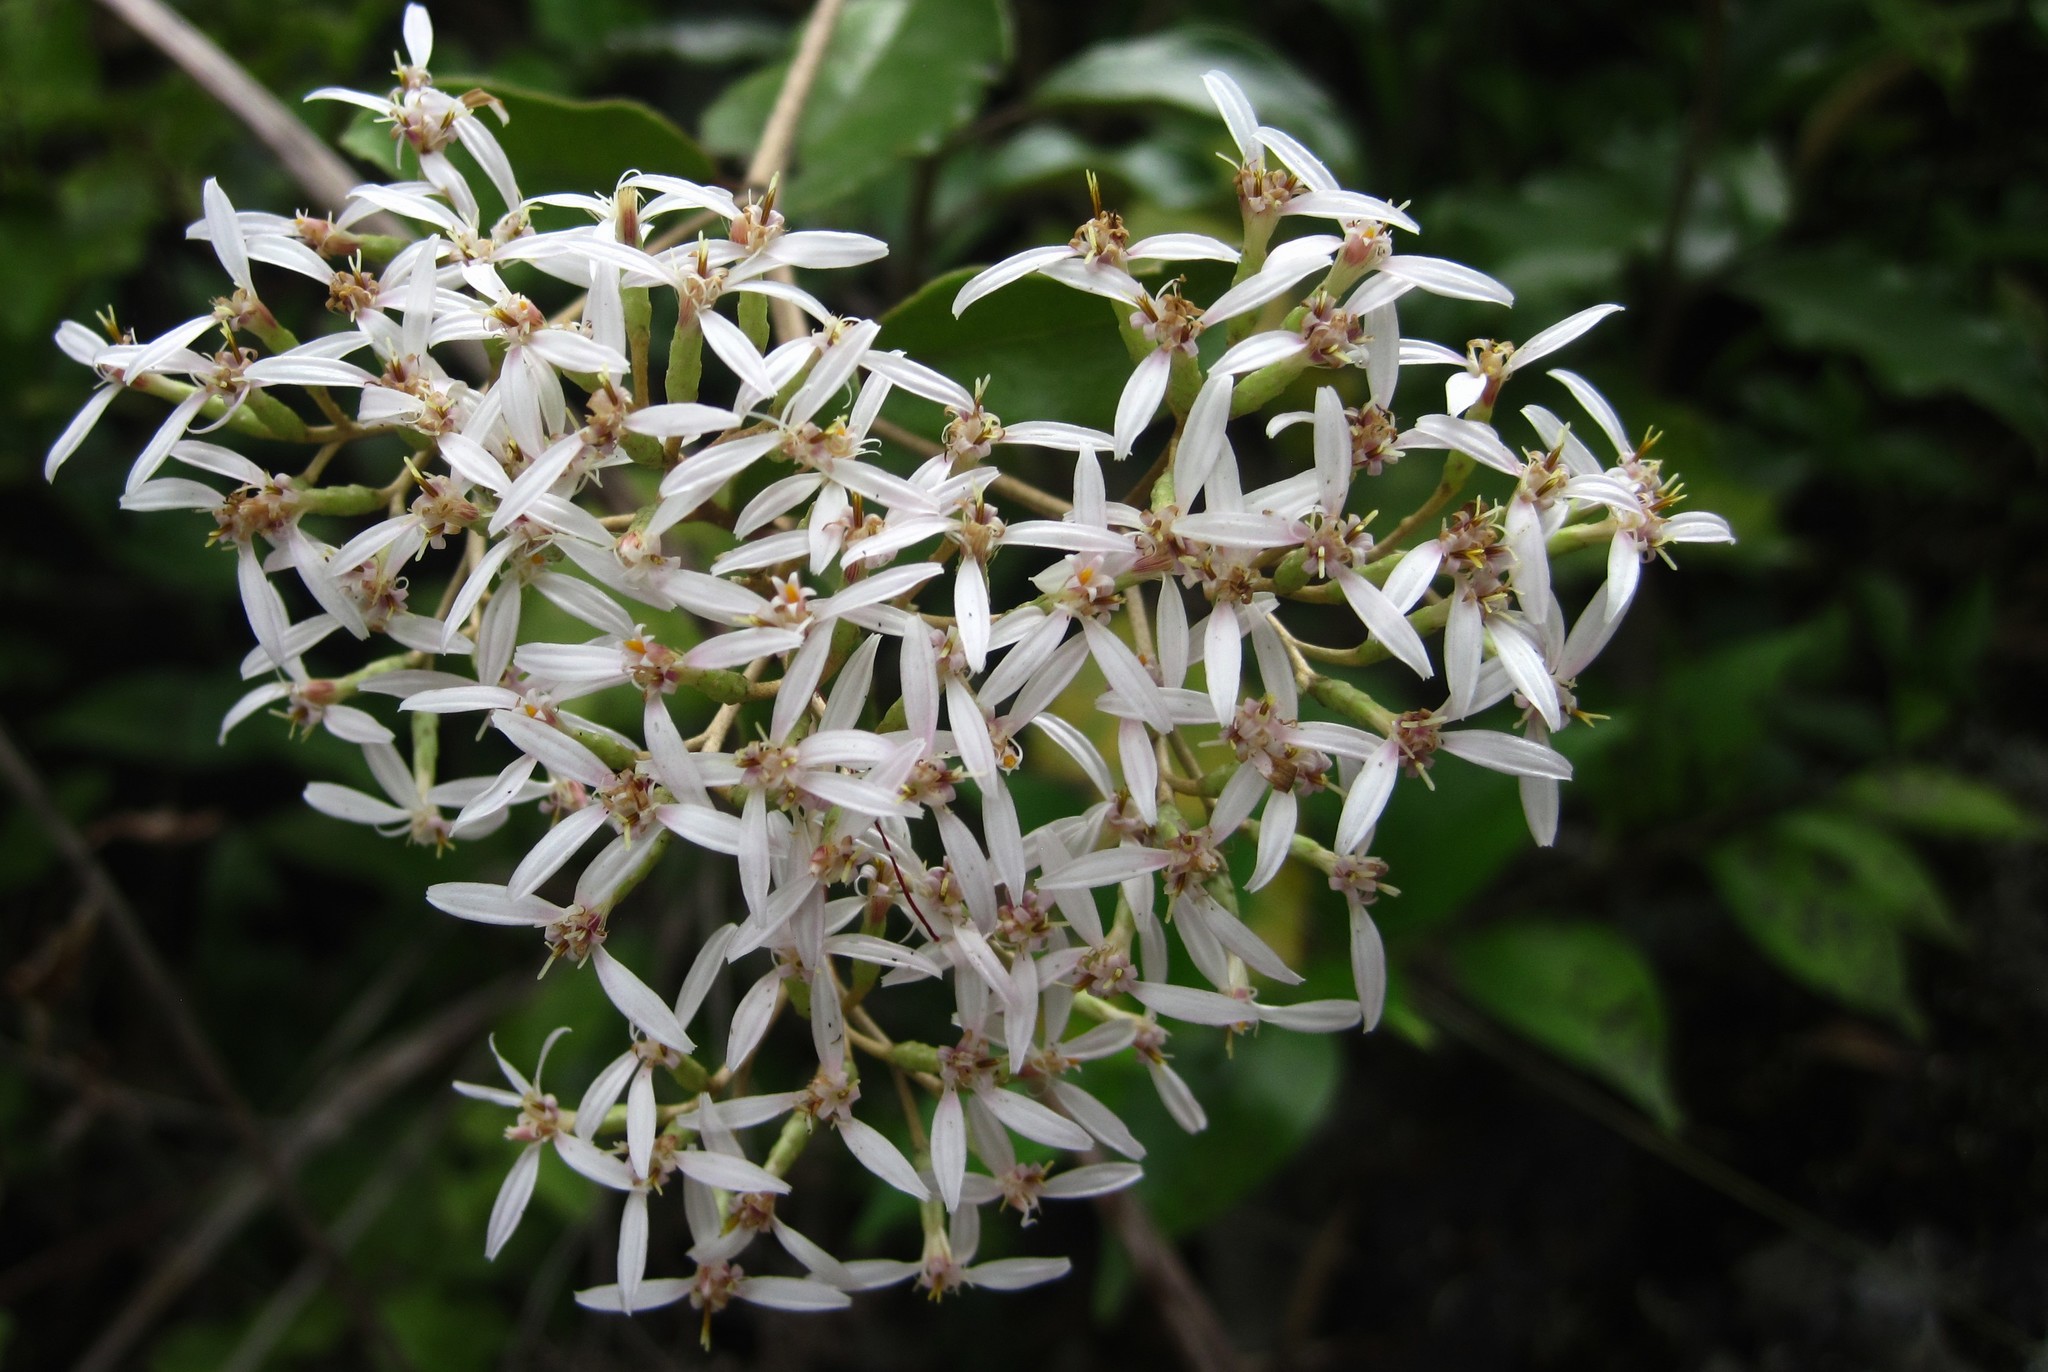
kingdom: Plantae
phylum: Tracheophyta
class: Magnoliopsida
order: Asterales
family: Asteraceae
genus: Olearia
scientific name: Olearia furfuracea
